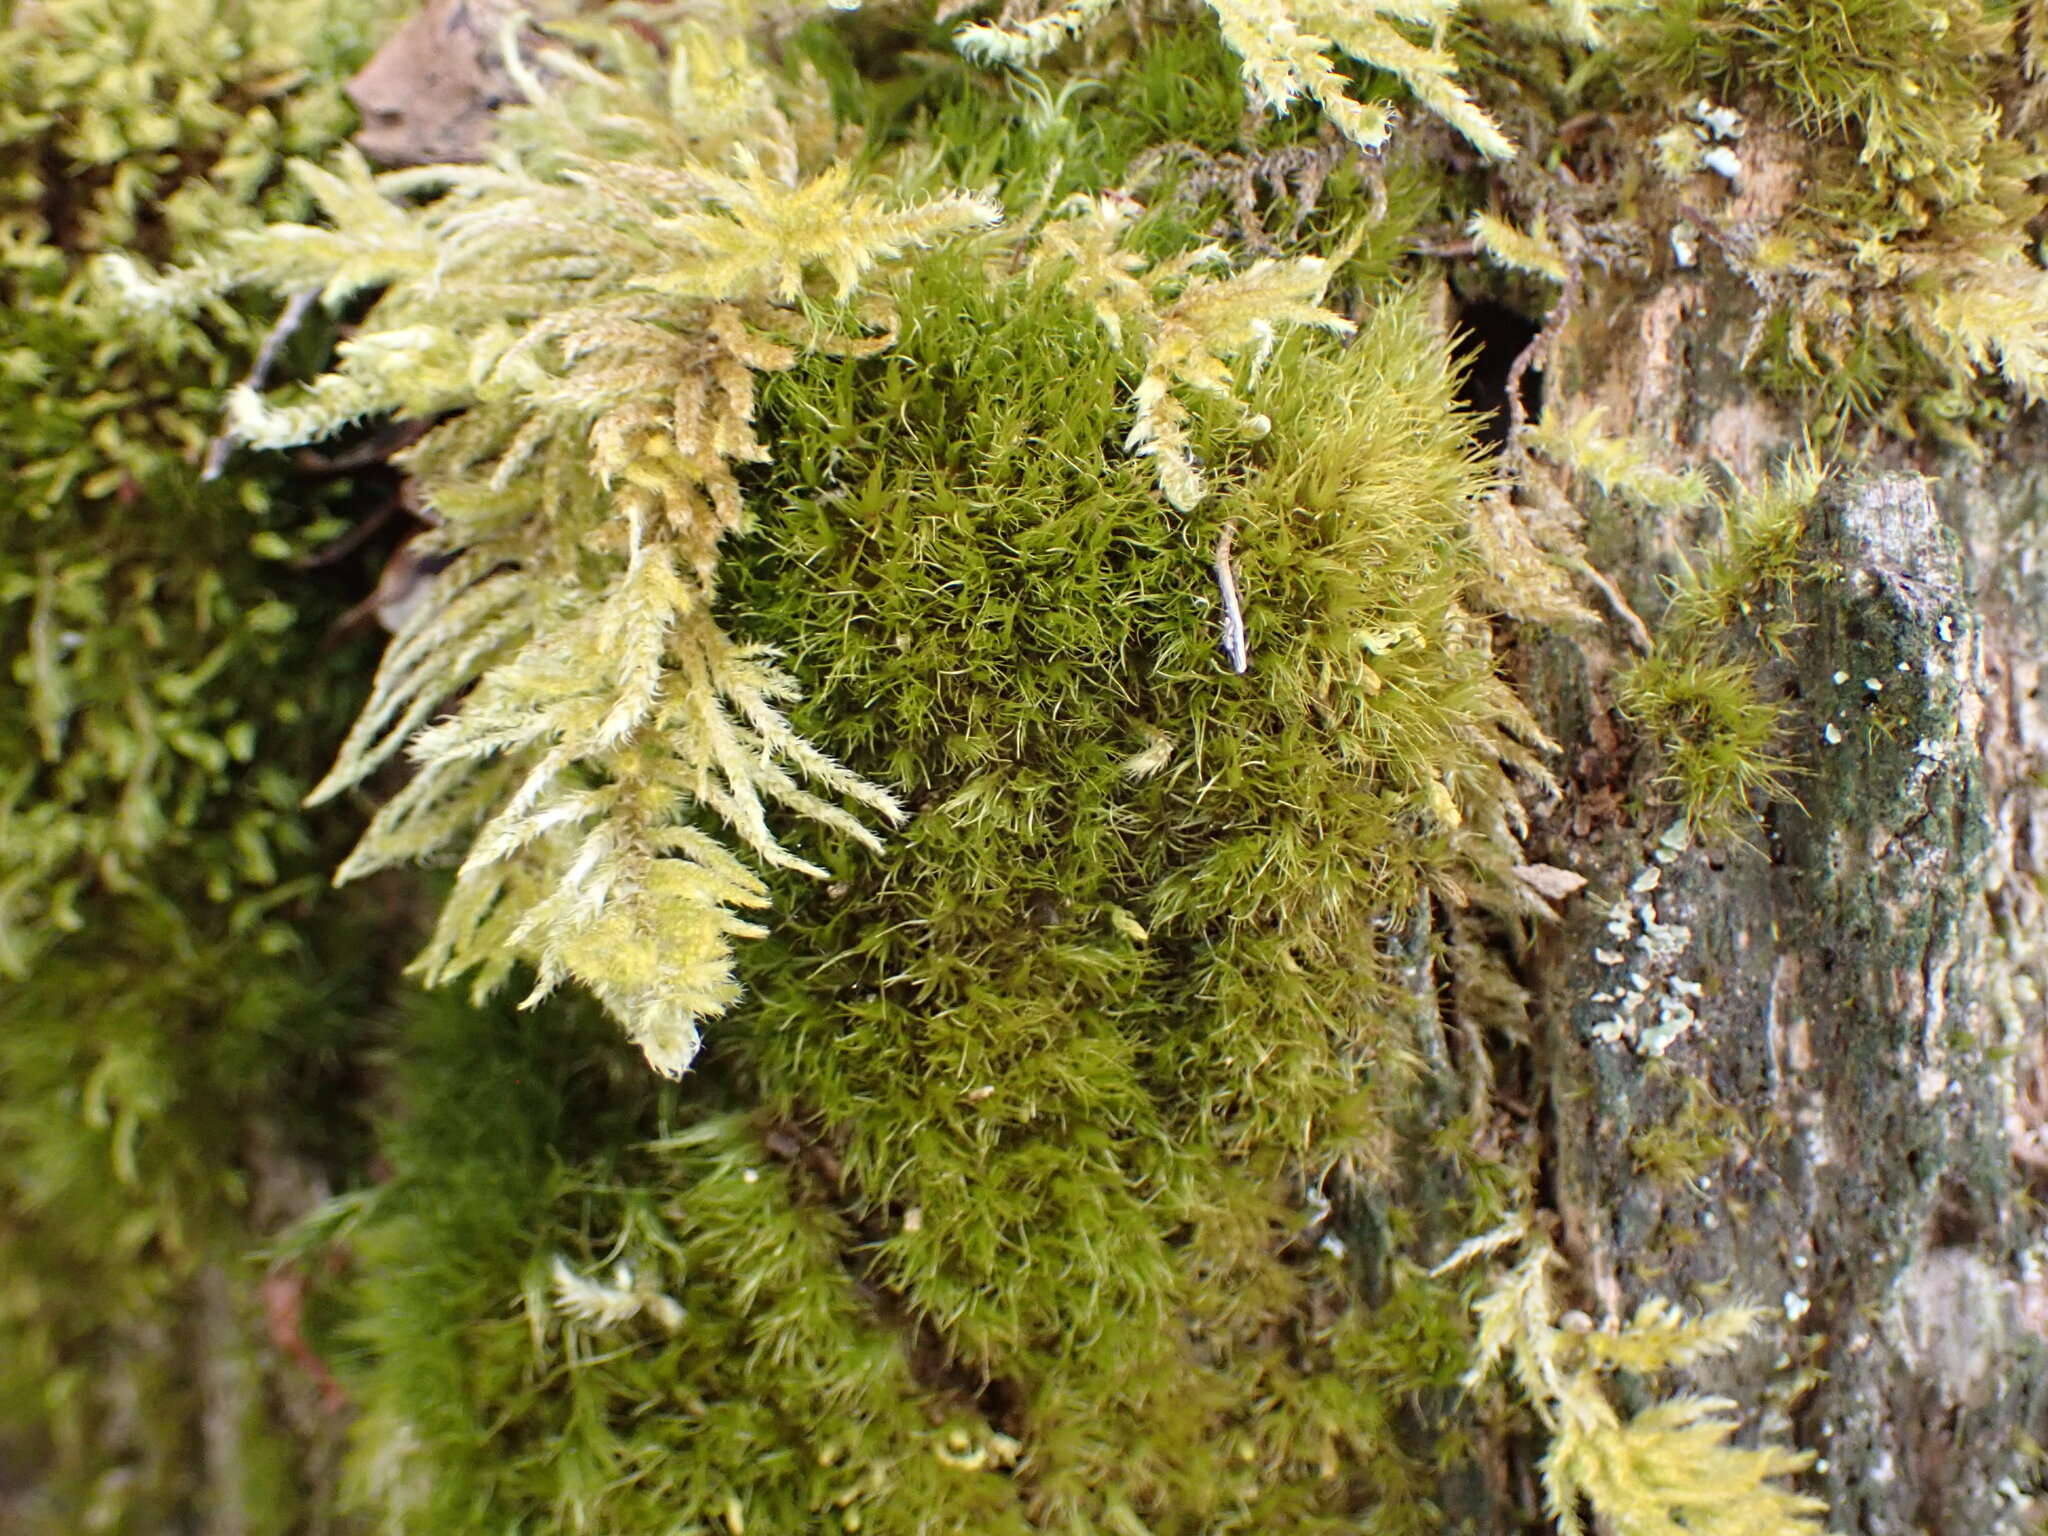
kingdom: Plantae
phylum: Bryophyta
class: Bryopsida
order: Dicranales
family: Dicranaceae
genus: Orthodicranum
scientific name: Orthodicranum tauricum
